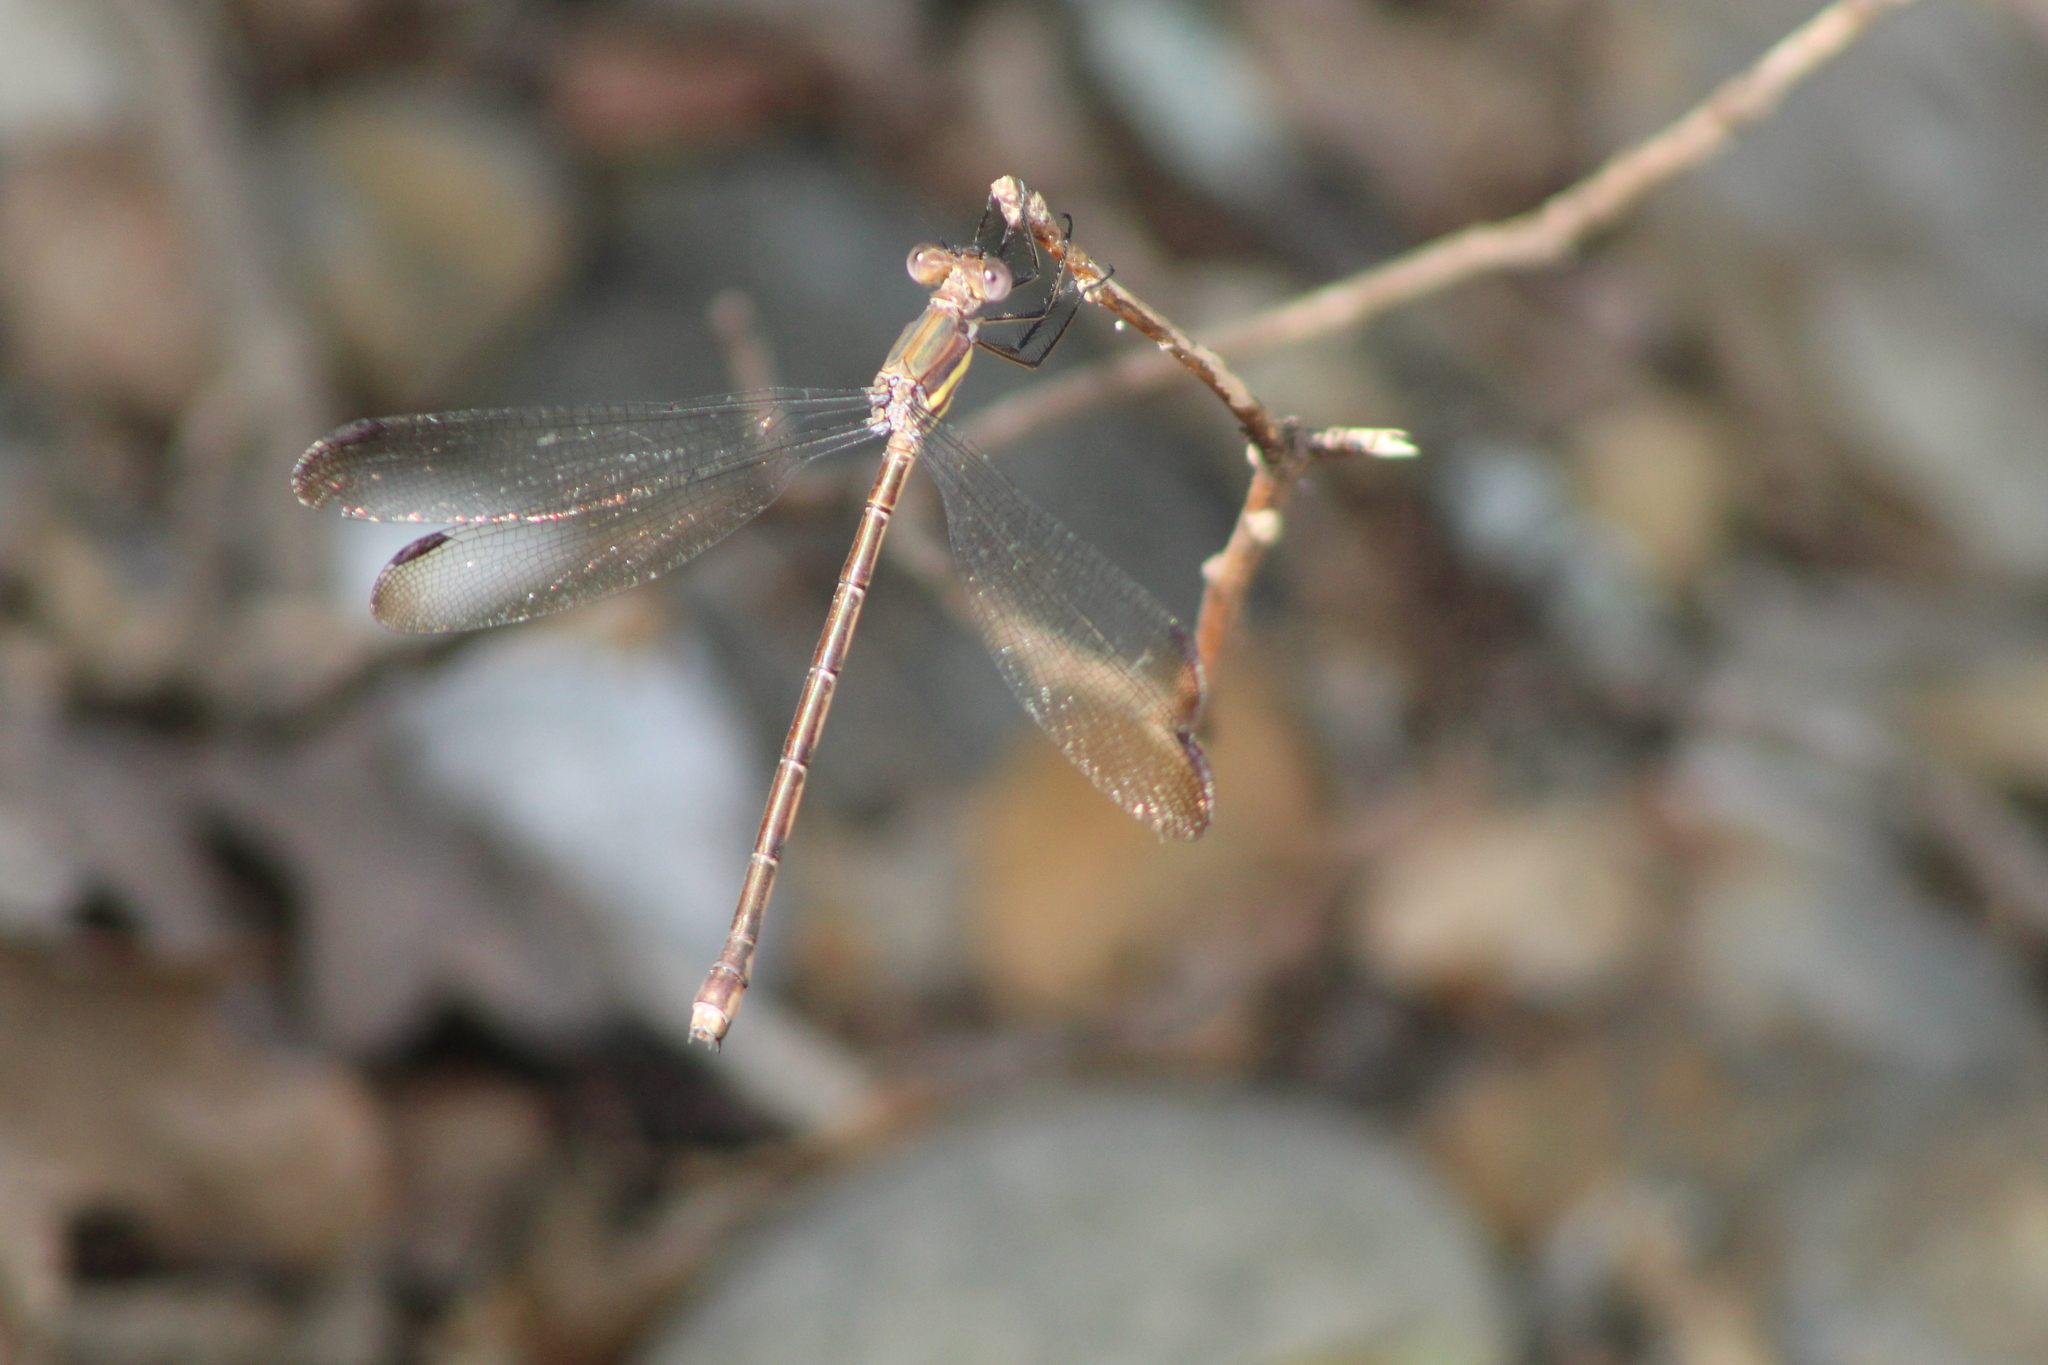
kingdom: Animalia
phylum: Arthropoda
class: Insecta
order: Odonata
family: Lestidae
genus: Archilestes
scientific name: Archilestes grandis
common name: Great spreadwing
